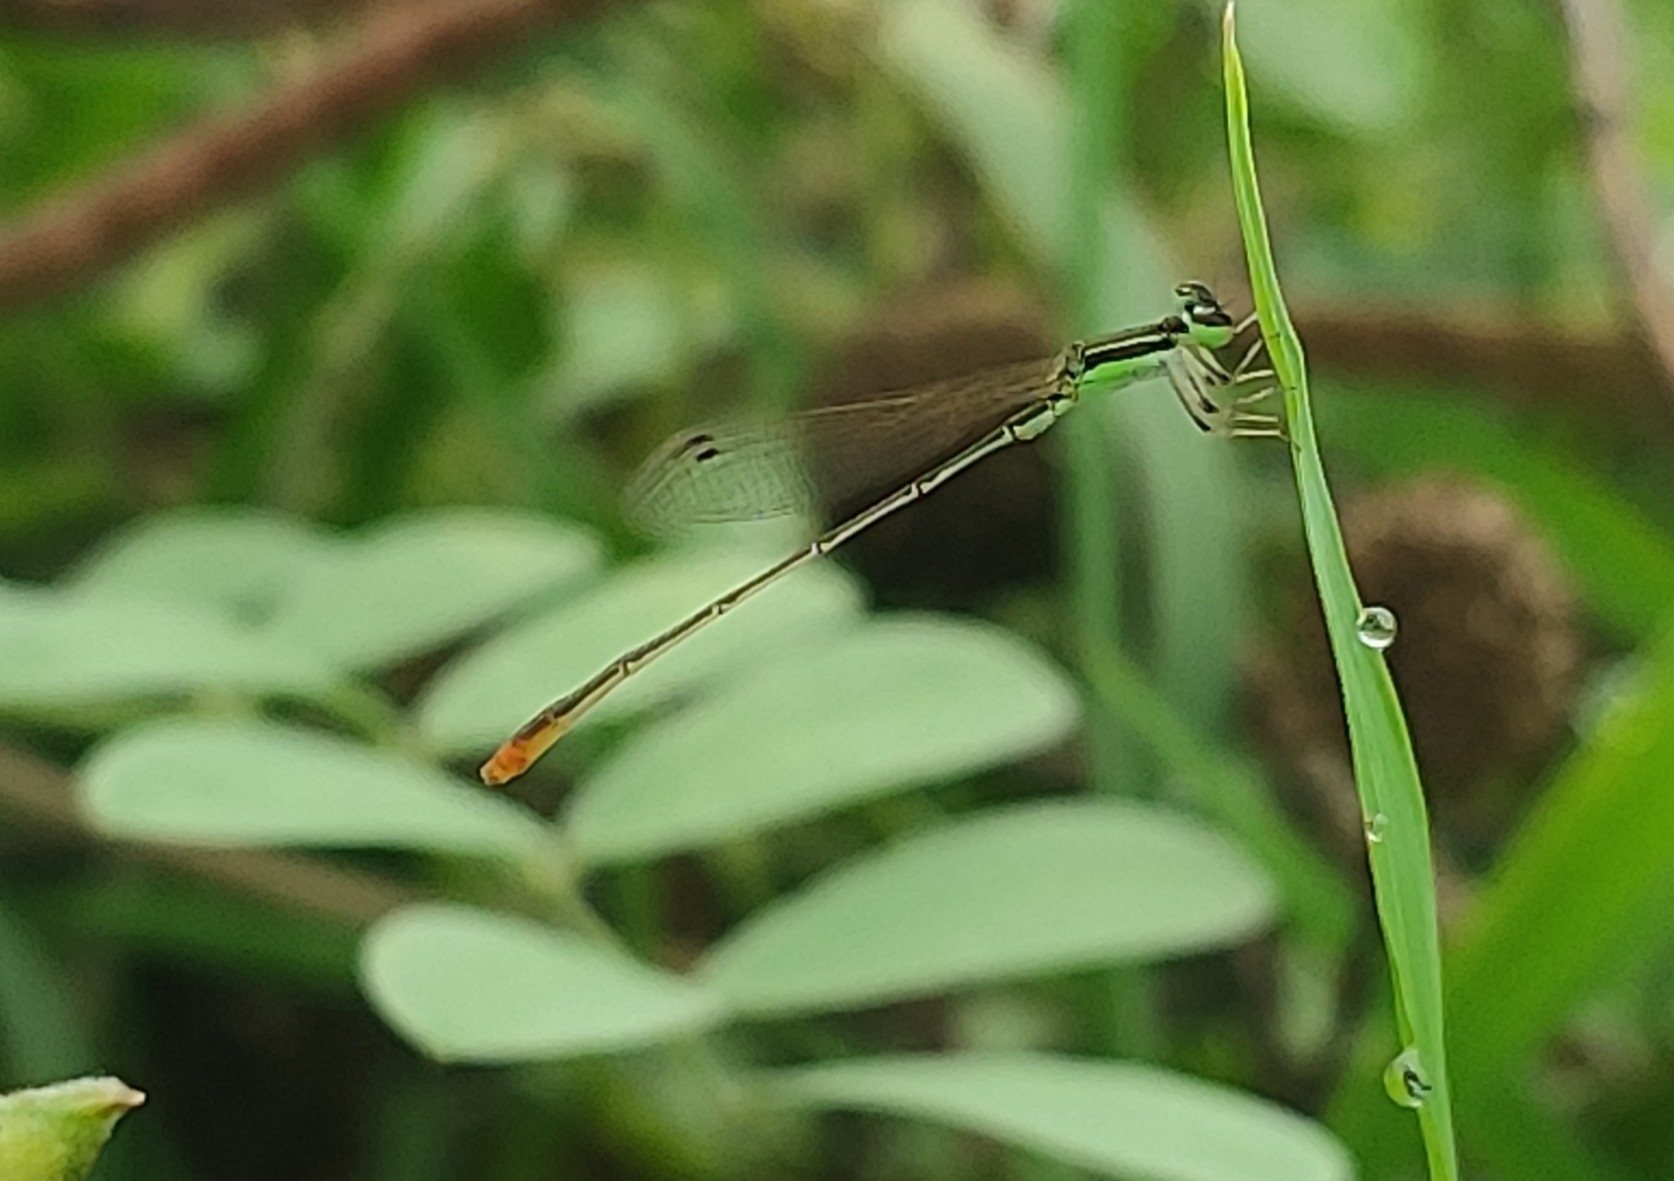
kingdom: Animalia
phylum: Arthropoda
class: Insecta
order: Odonata
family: Coenagrionidae
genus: Agriocnemis
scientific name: Agriocnemis pygmaea
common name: Pygmy wisp
